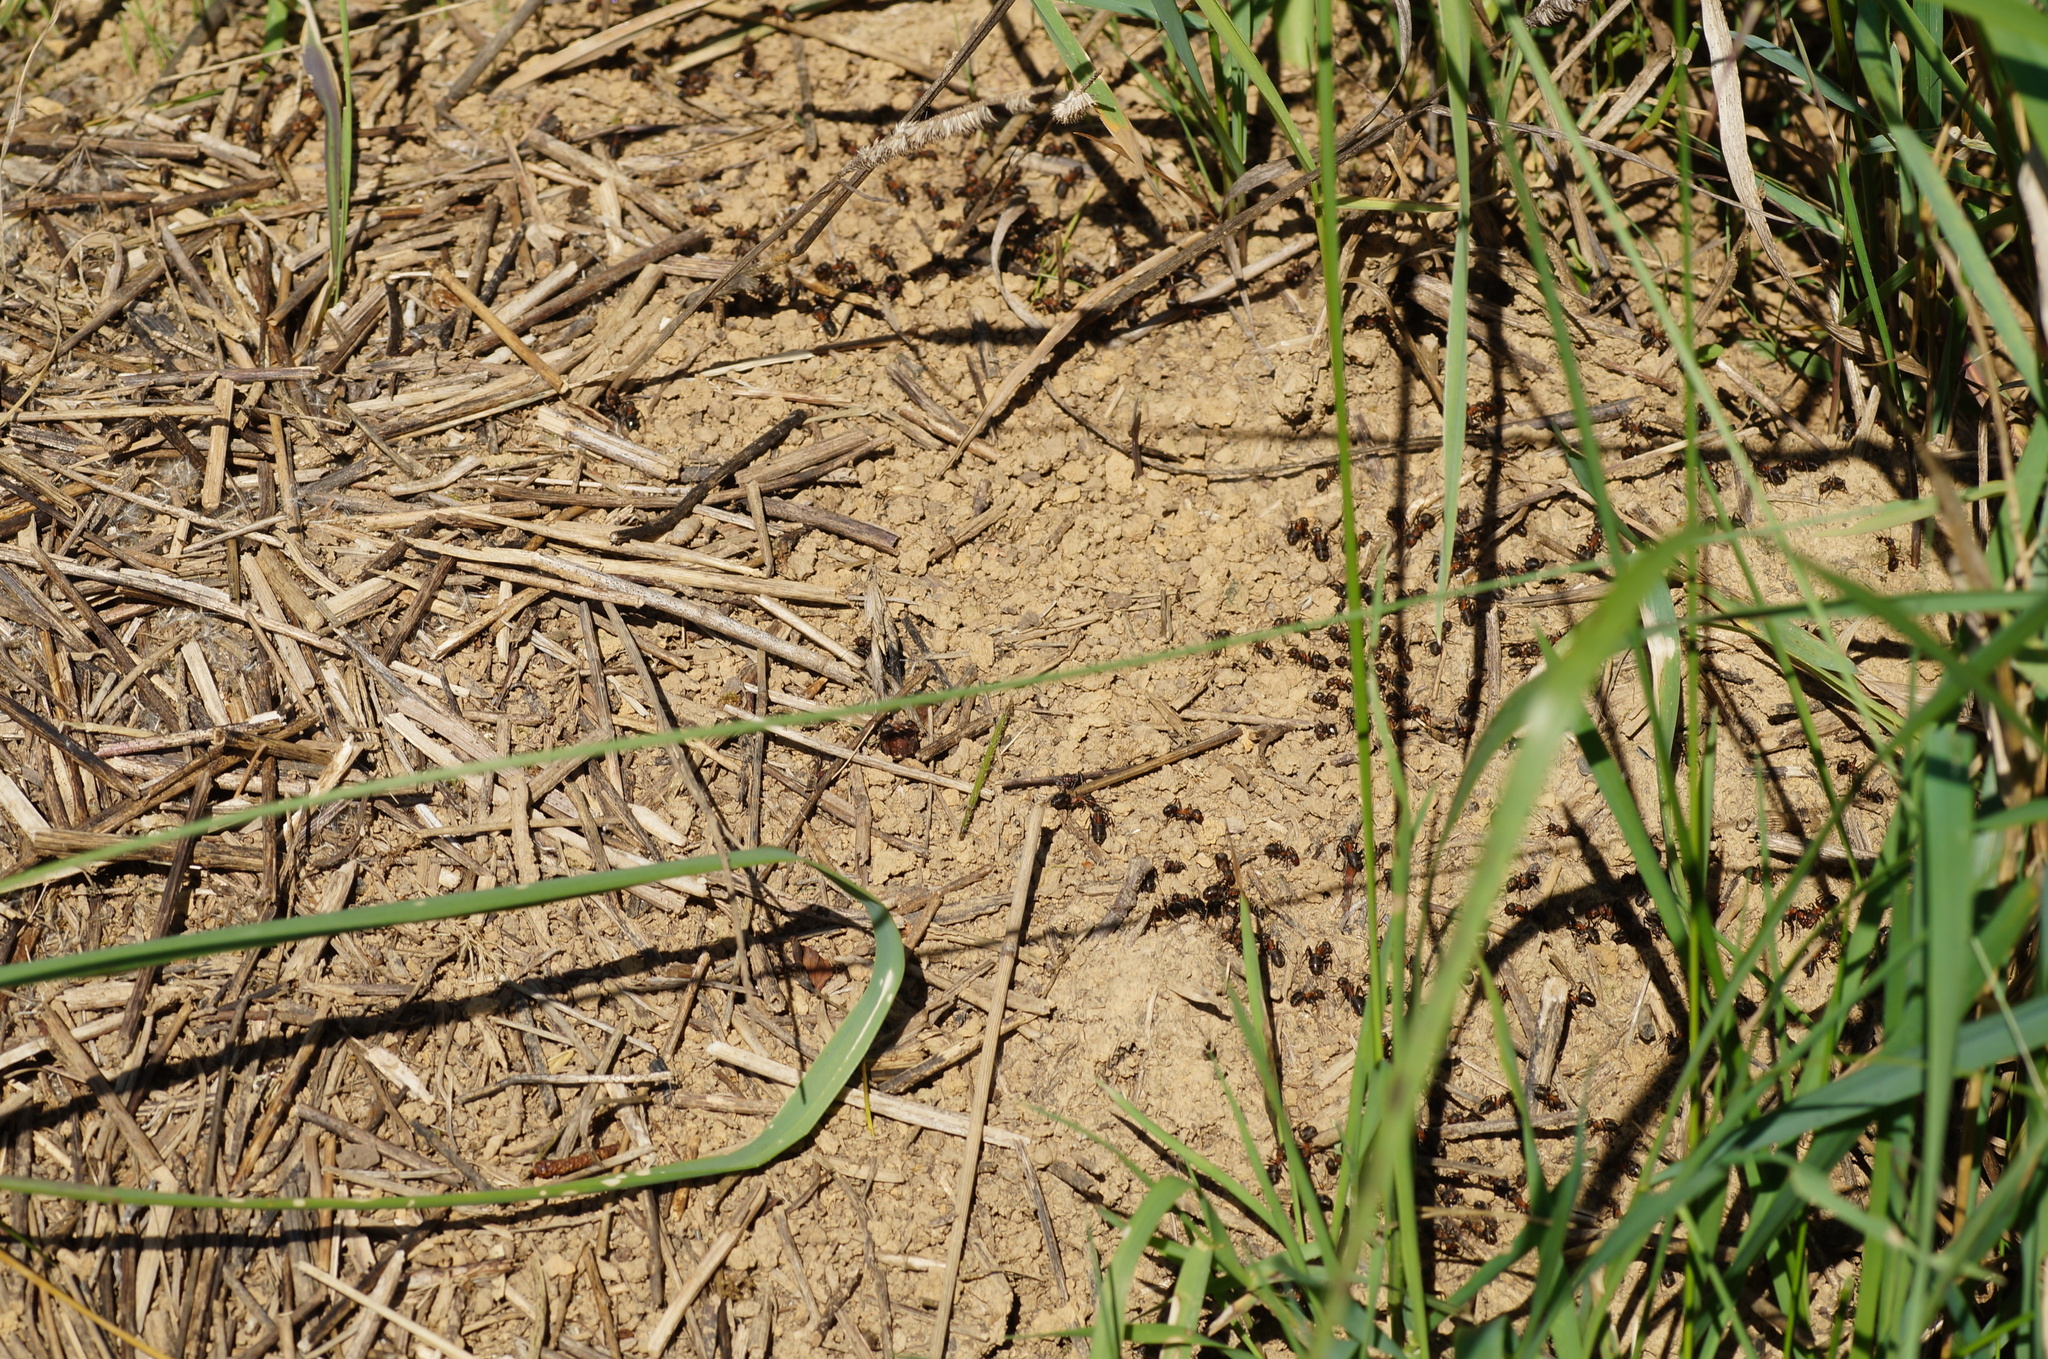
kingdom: Animalia
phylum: Arthropoda
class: Insecta
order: Hymenoptera
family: Formicidae
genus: Formica
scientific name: Formica pratensis
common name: European red wood ant
